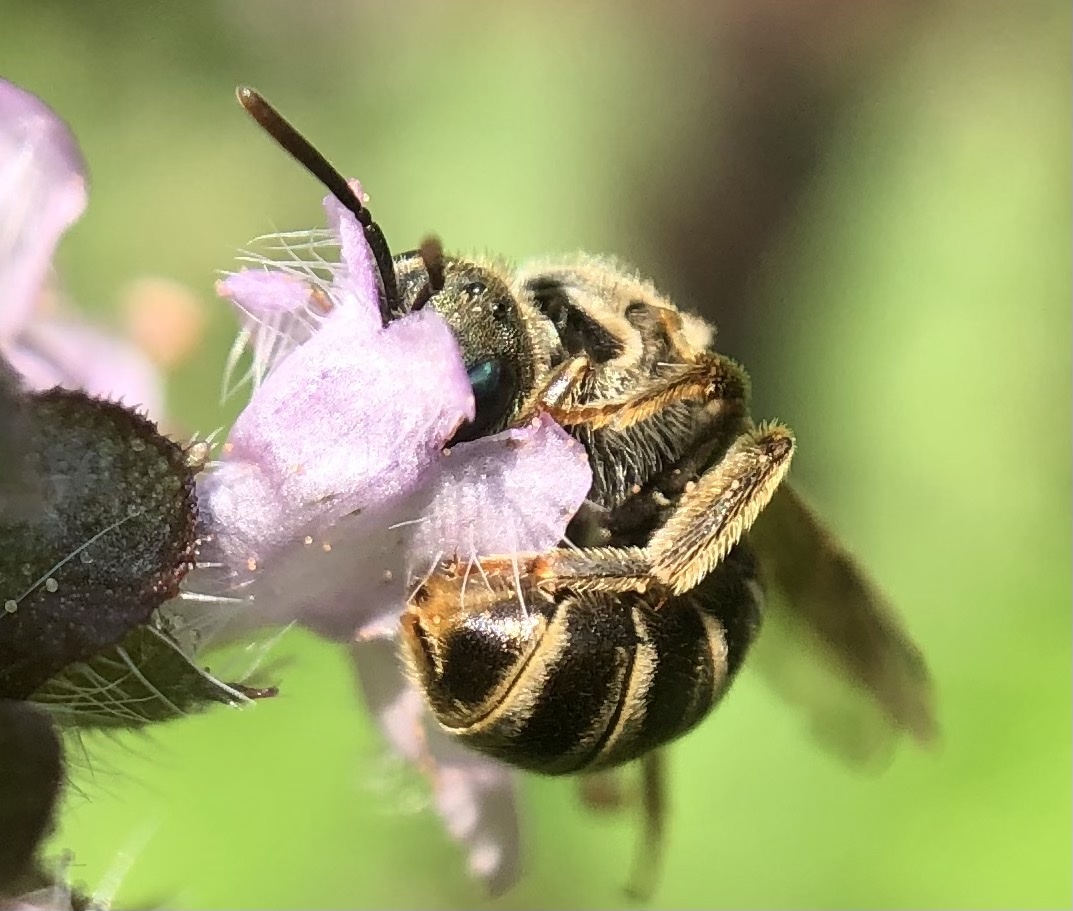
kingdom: Animalia
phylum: Arthropoda
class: Insecta
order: Hymenoptera
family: Halictidae
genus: Halictus
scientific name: Halictus confusus
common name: Southern bronze furrow bee
